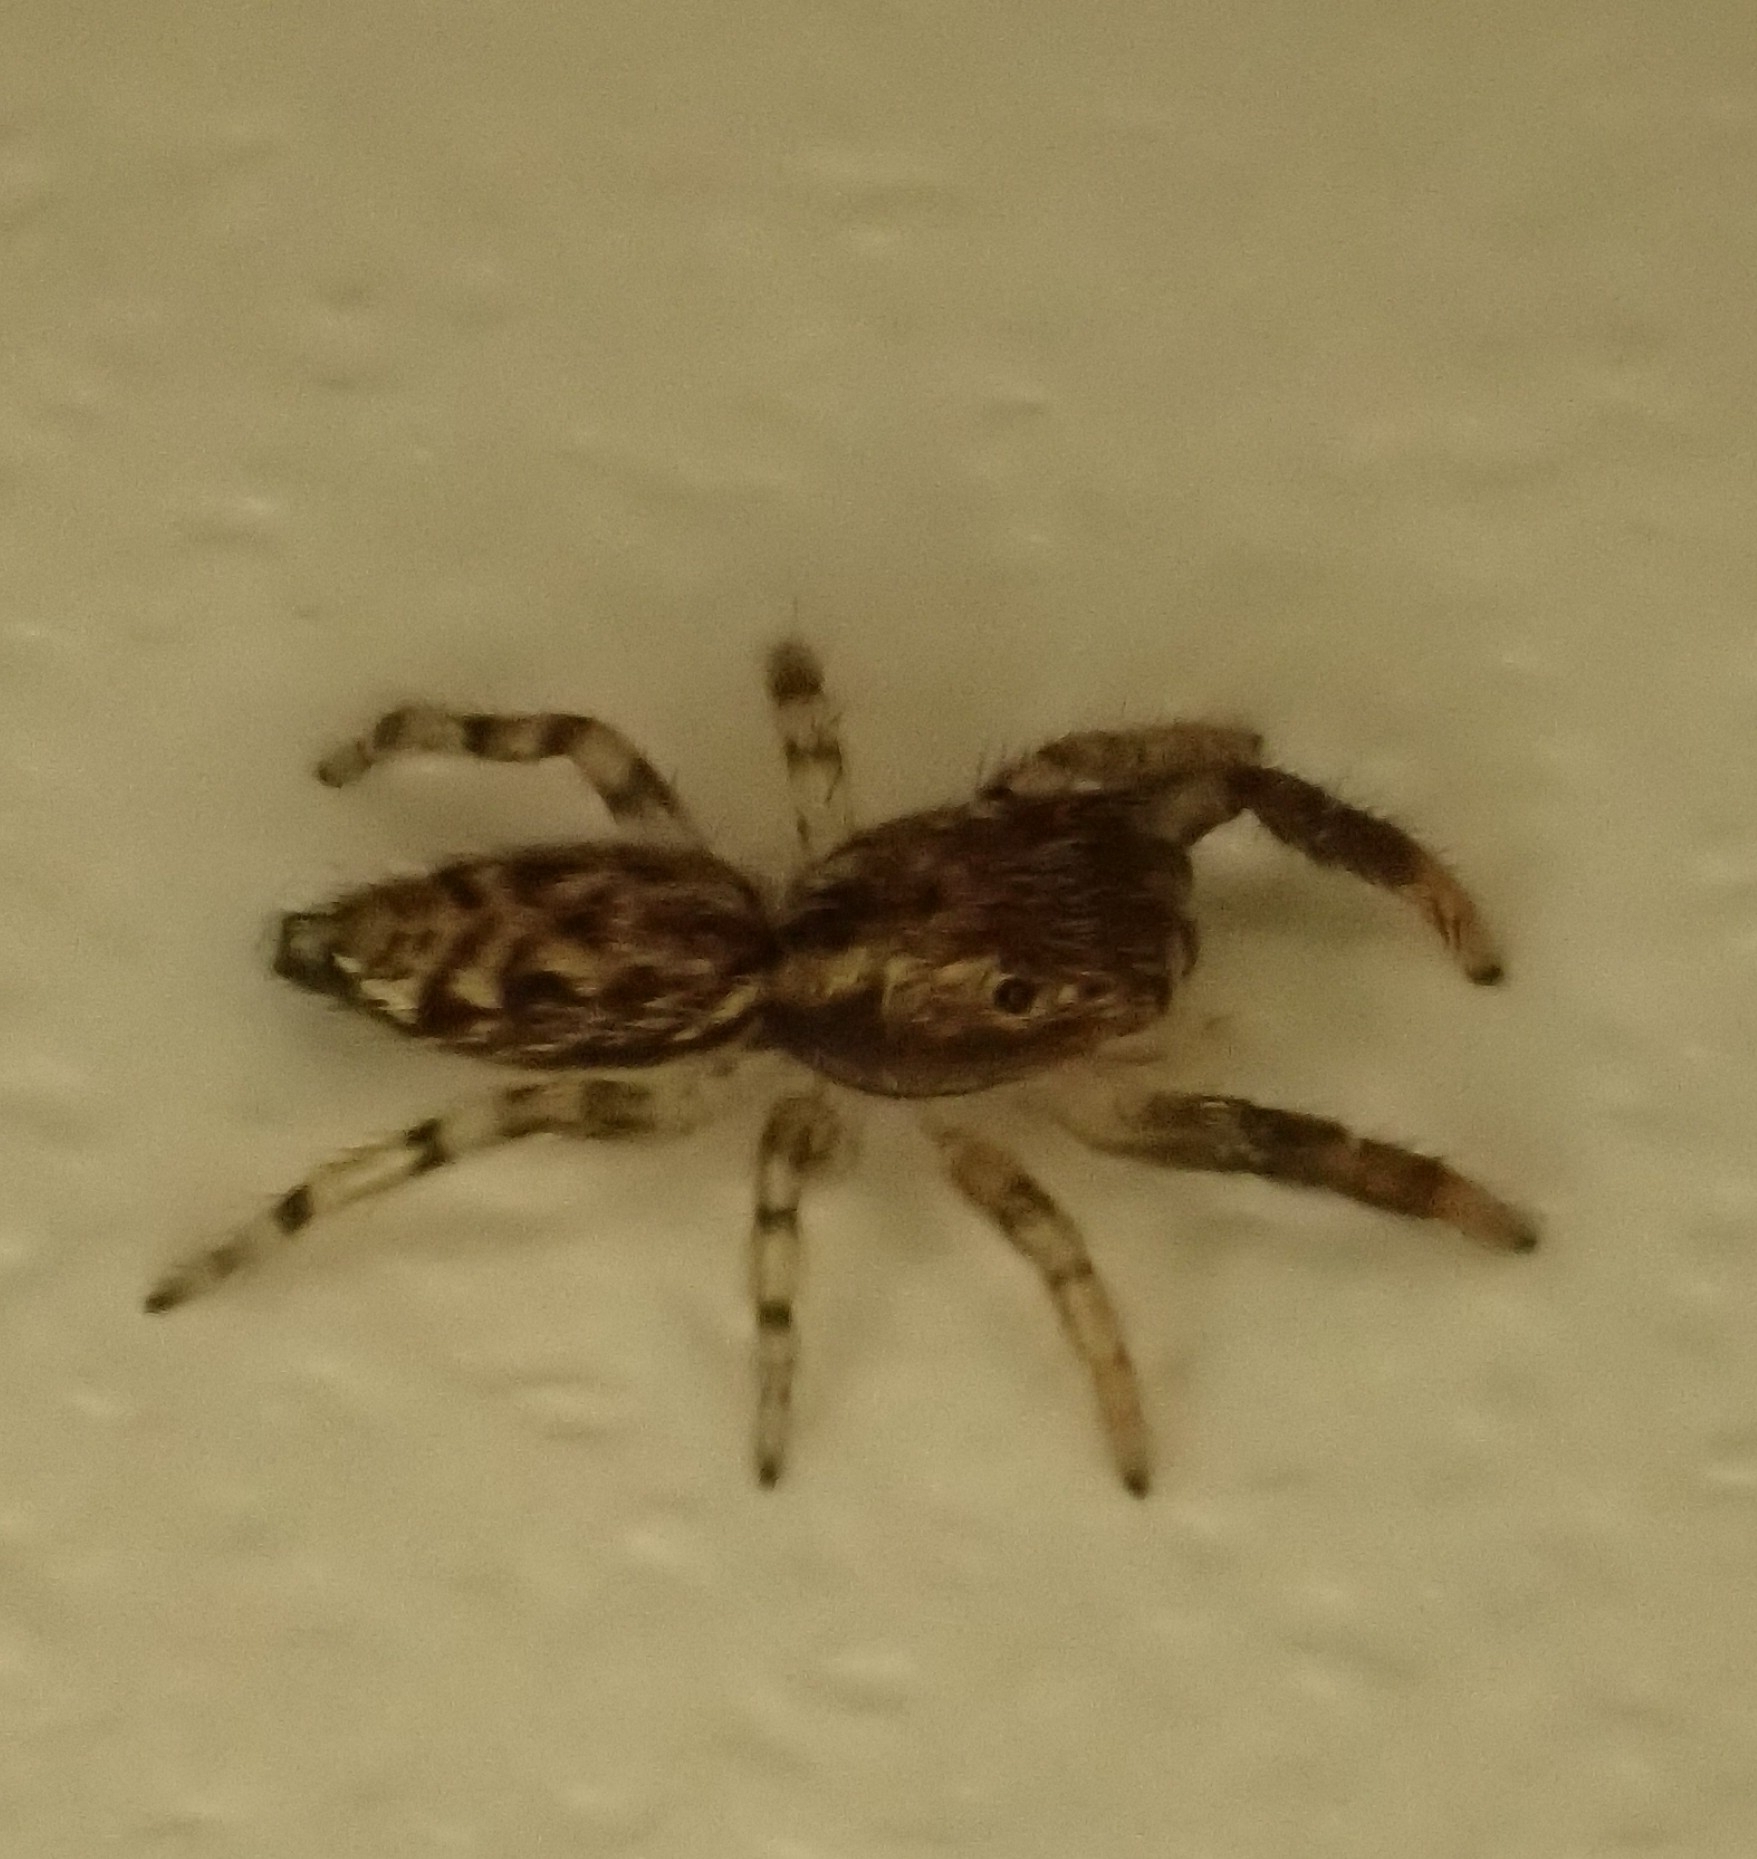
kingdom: Animalia
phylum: Arthropoda
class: Arachnida
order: Araneae
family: Salticidae
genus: Marpissa
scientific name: Marpissa muscosa
